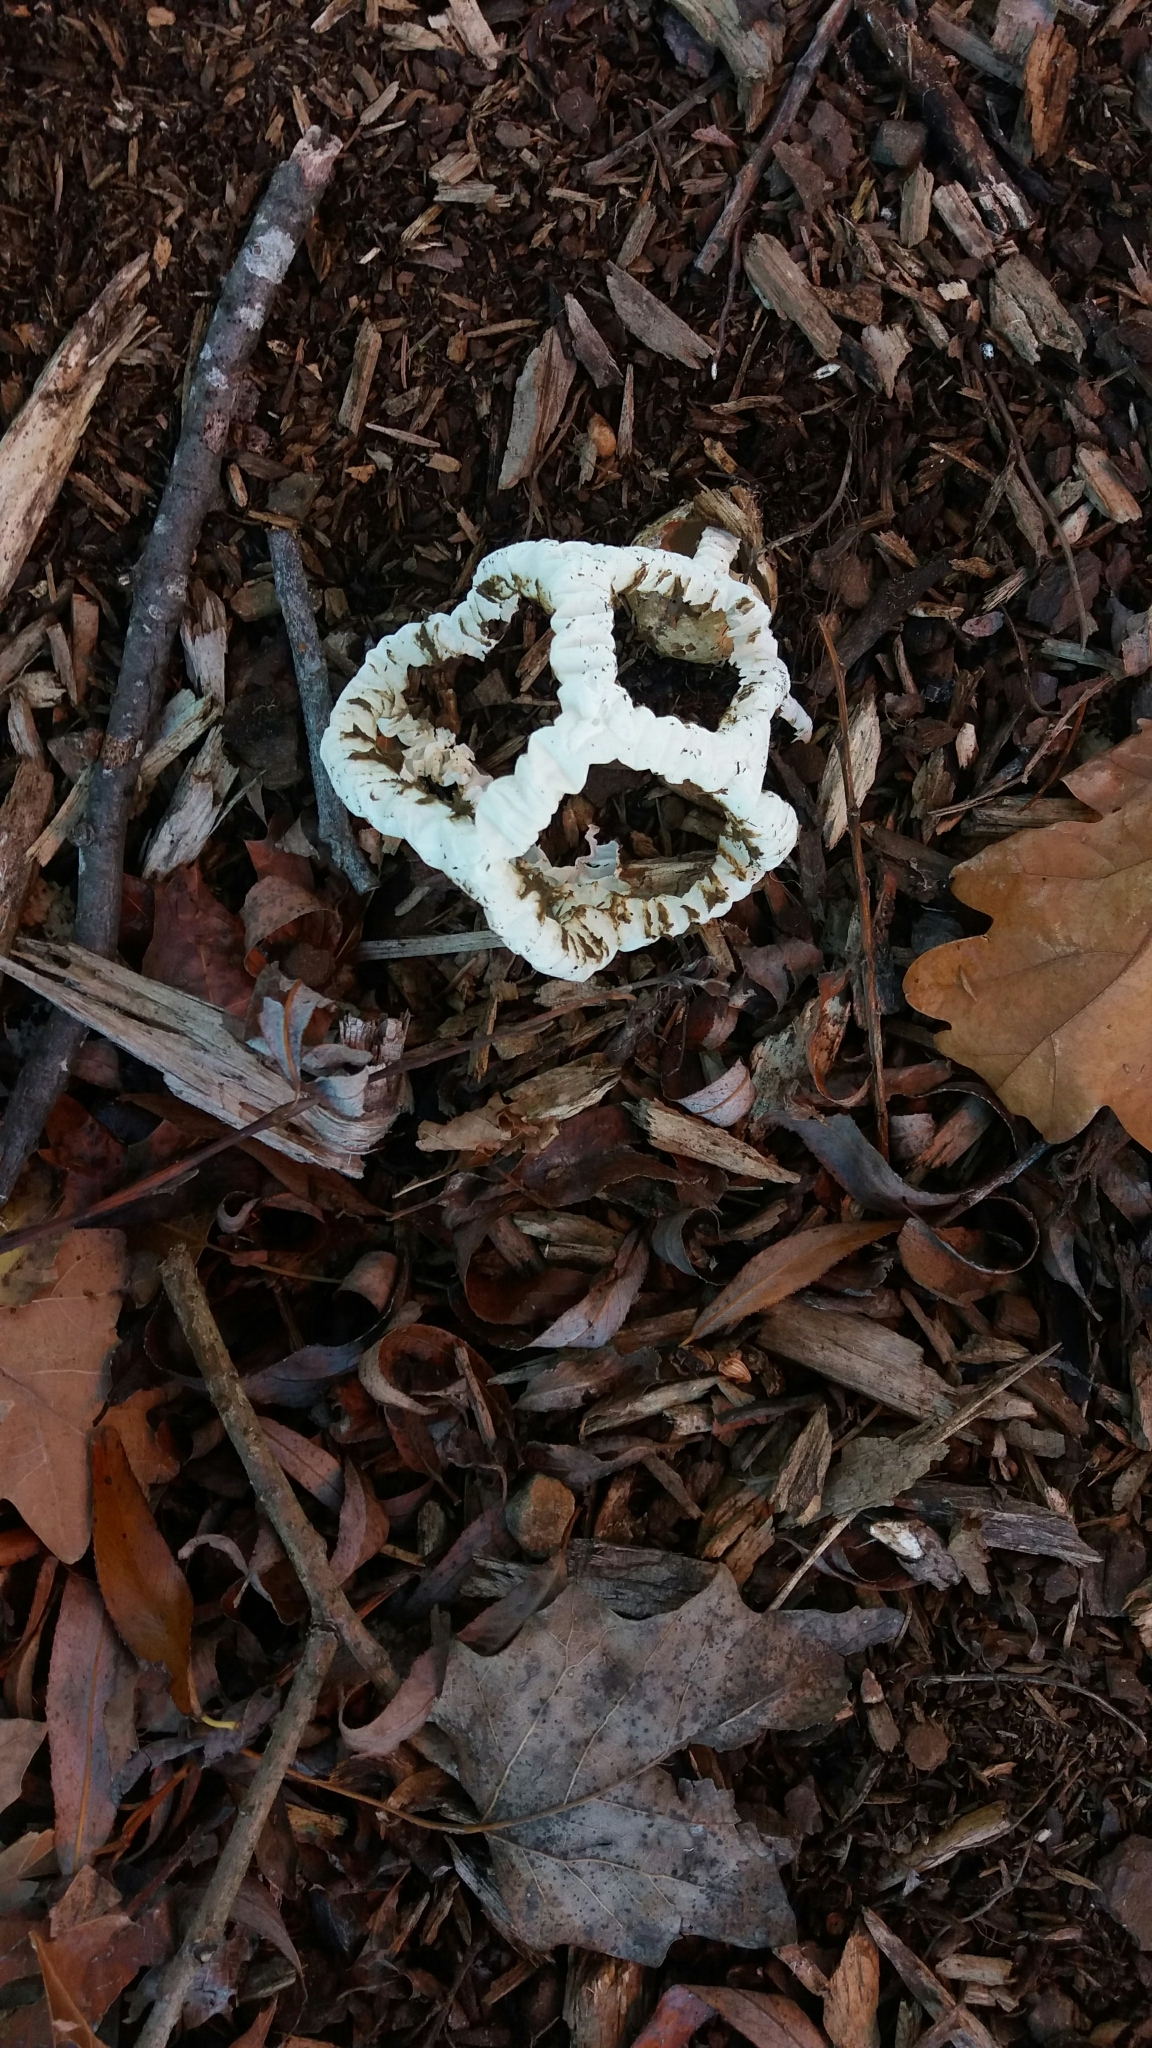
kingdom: Fungi
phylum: Basidiomycota
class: Agaricomycetes
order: Phallales
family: Phallaceae
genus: Ileodictyon
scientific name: Ileodictyon cibarium
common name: Basket fungus
